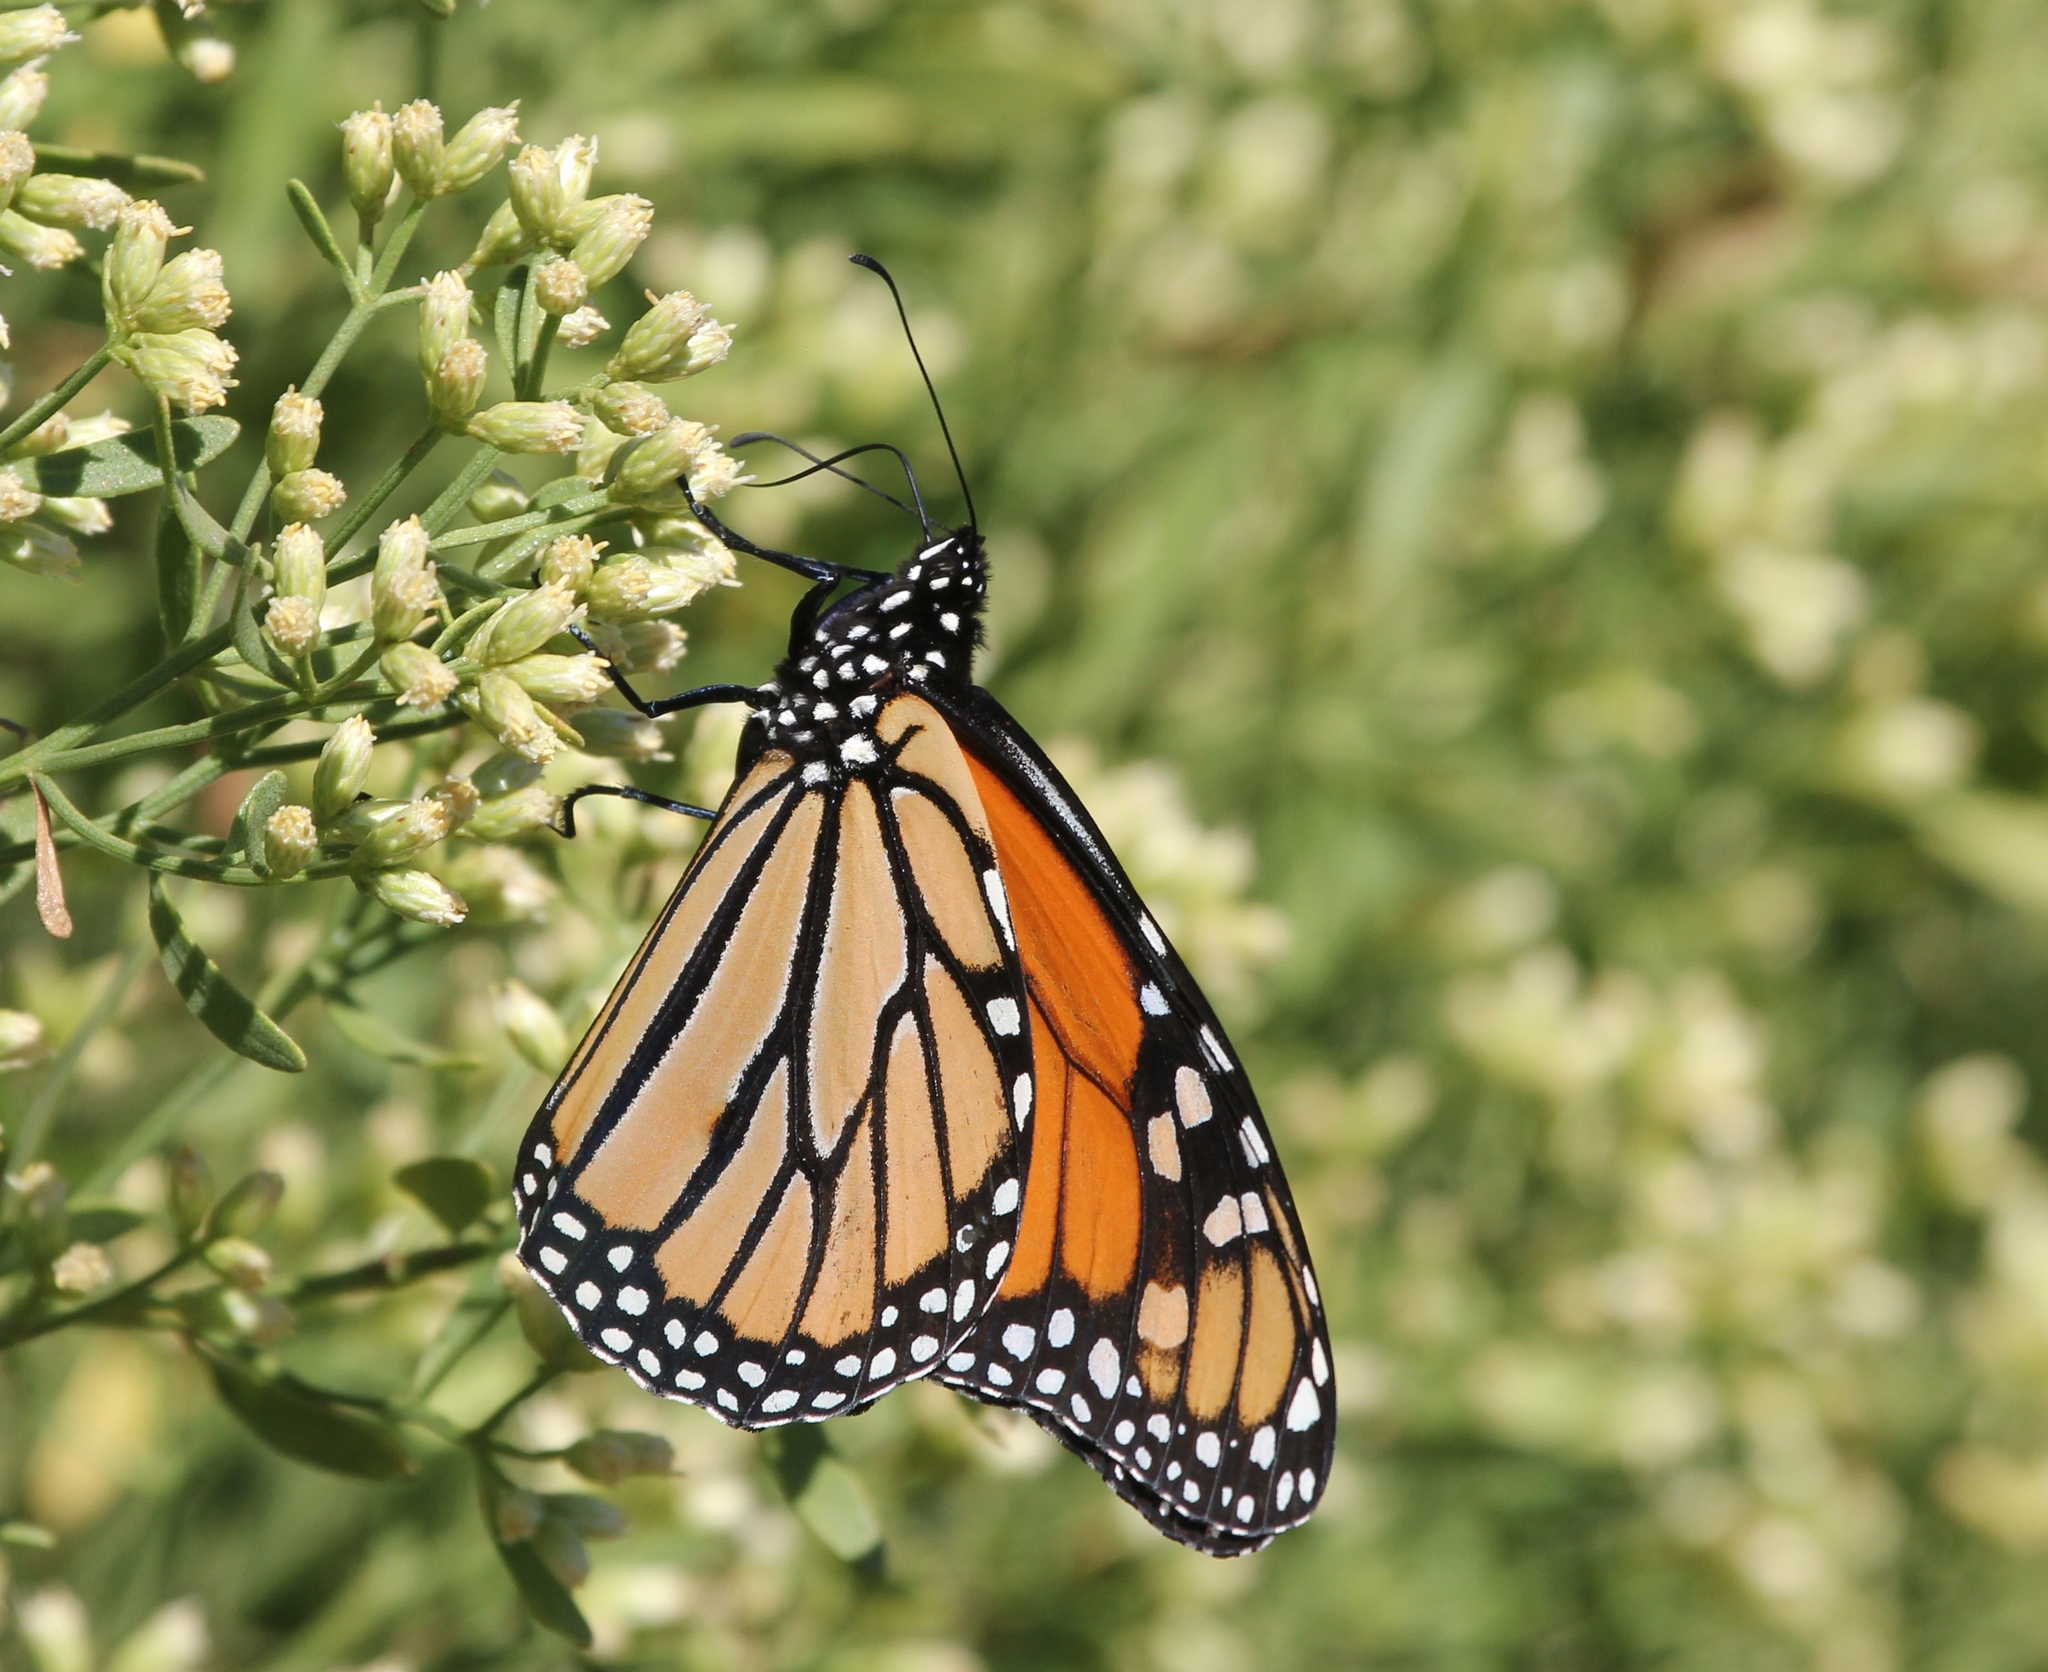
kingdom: Animalia
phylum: Arthropoda
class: Insecta
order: Lepidoptera
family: Nymphalidae
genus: Danaus
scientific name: Danaus plexippus
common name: Monarch
